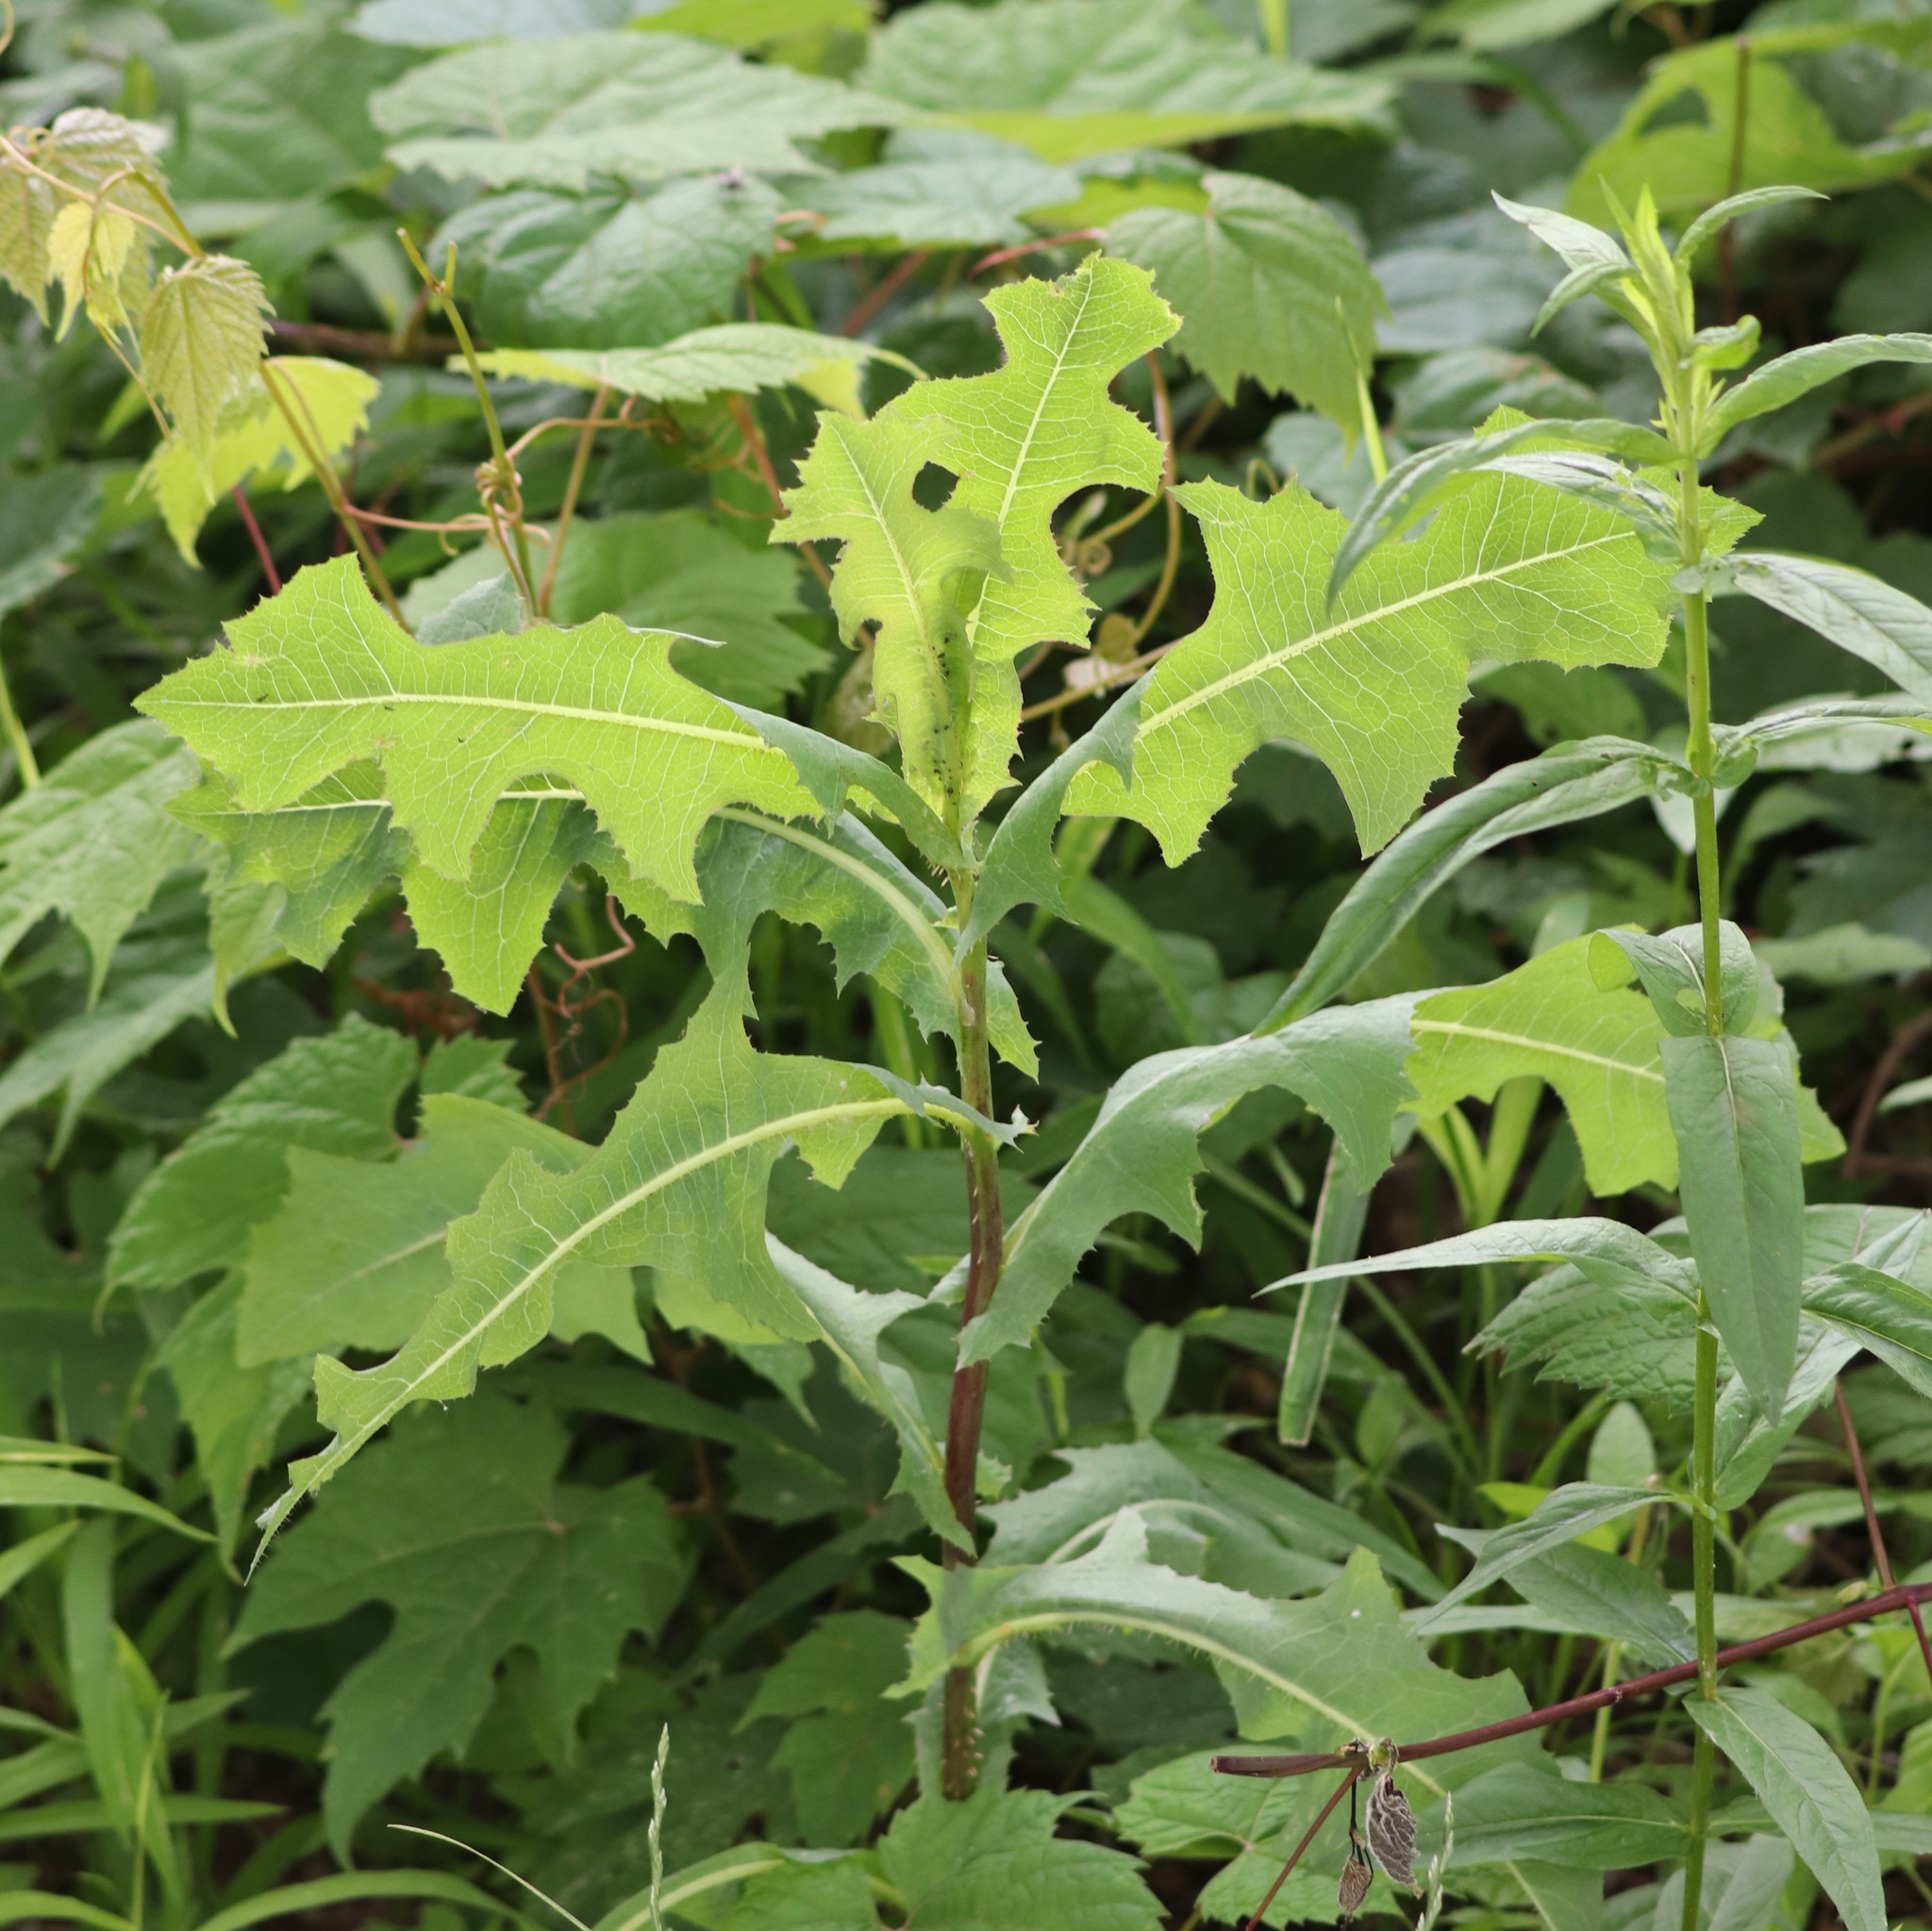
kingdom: Plantae
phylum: Tracheophyta
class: Magnoliopsida
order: Asterales
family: Asteraceae
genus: Lactuca
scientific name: Lactuca serriola
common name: Prickly lettuce
